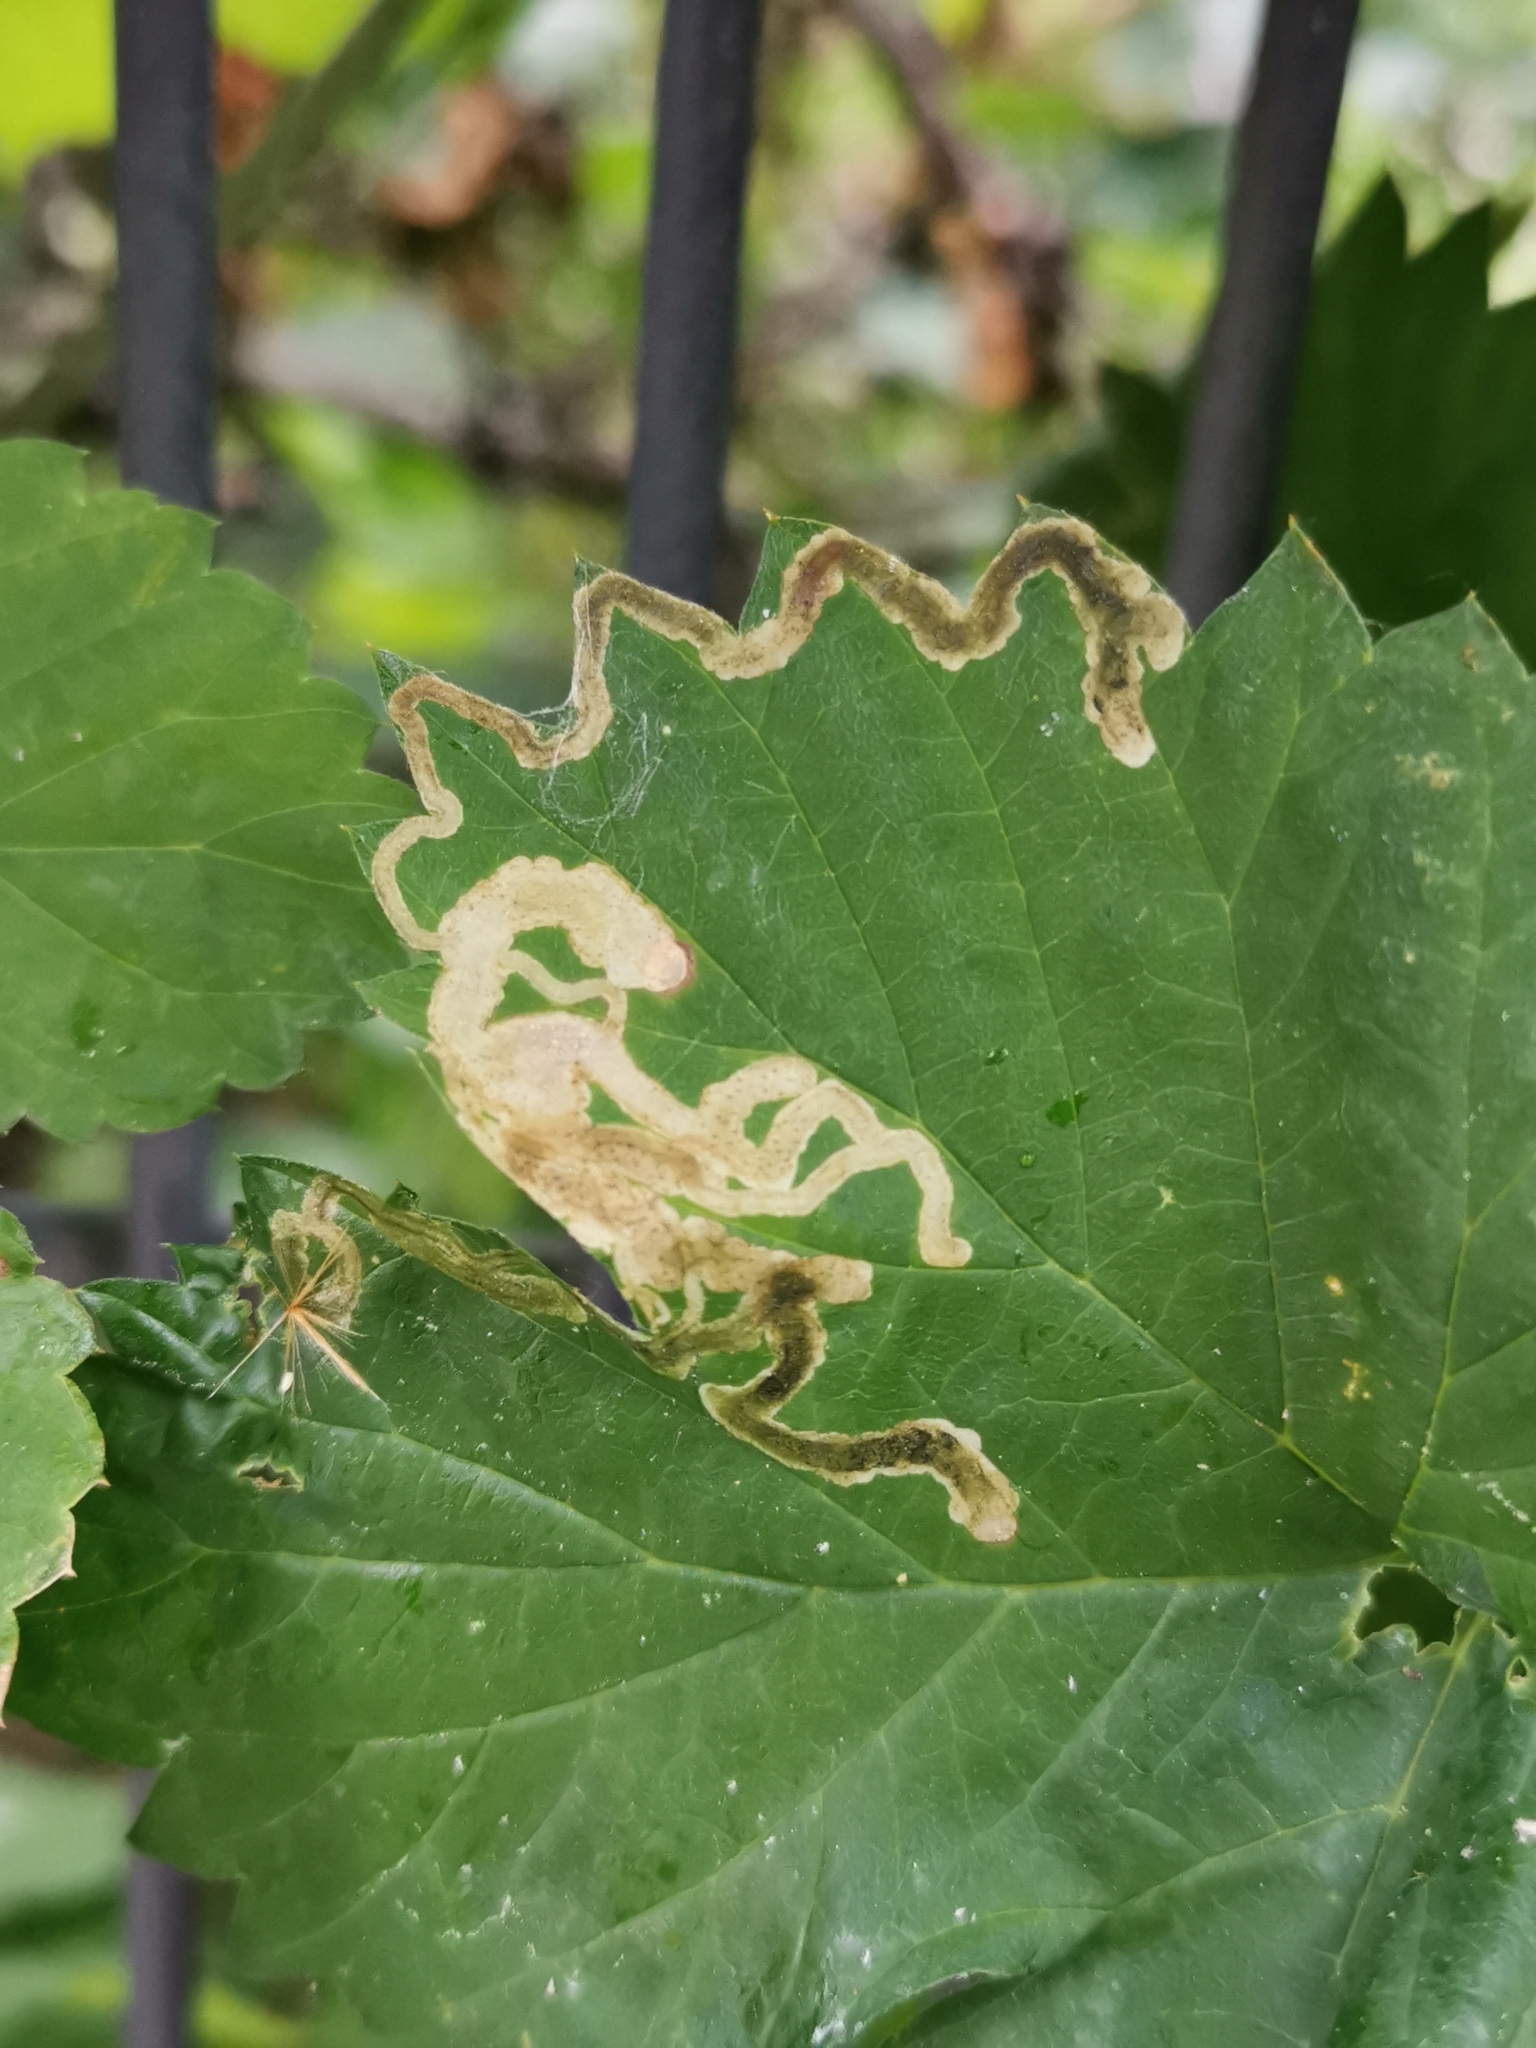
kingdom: Animalia
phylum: Arthropoda
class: Insecta
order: Diptera
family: Agromyzidae
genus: Agromyza
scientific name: Agromyza flaviceps
